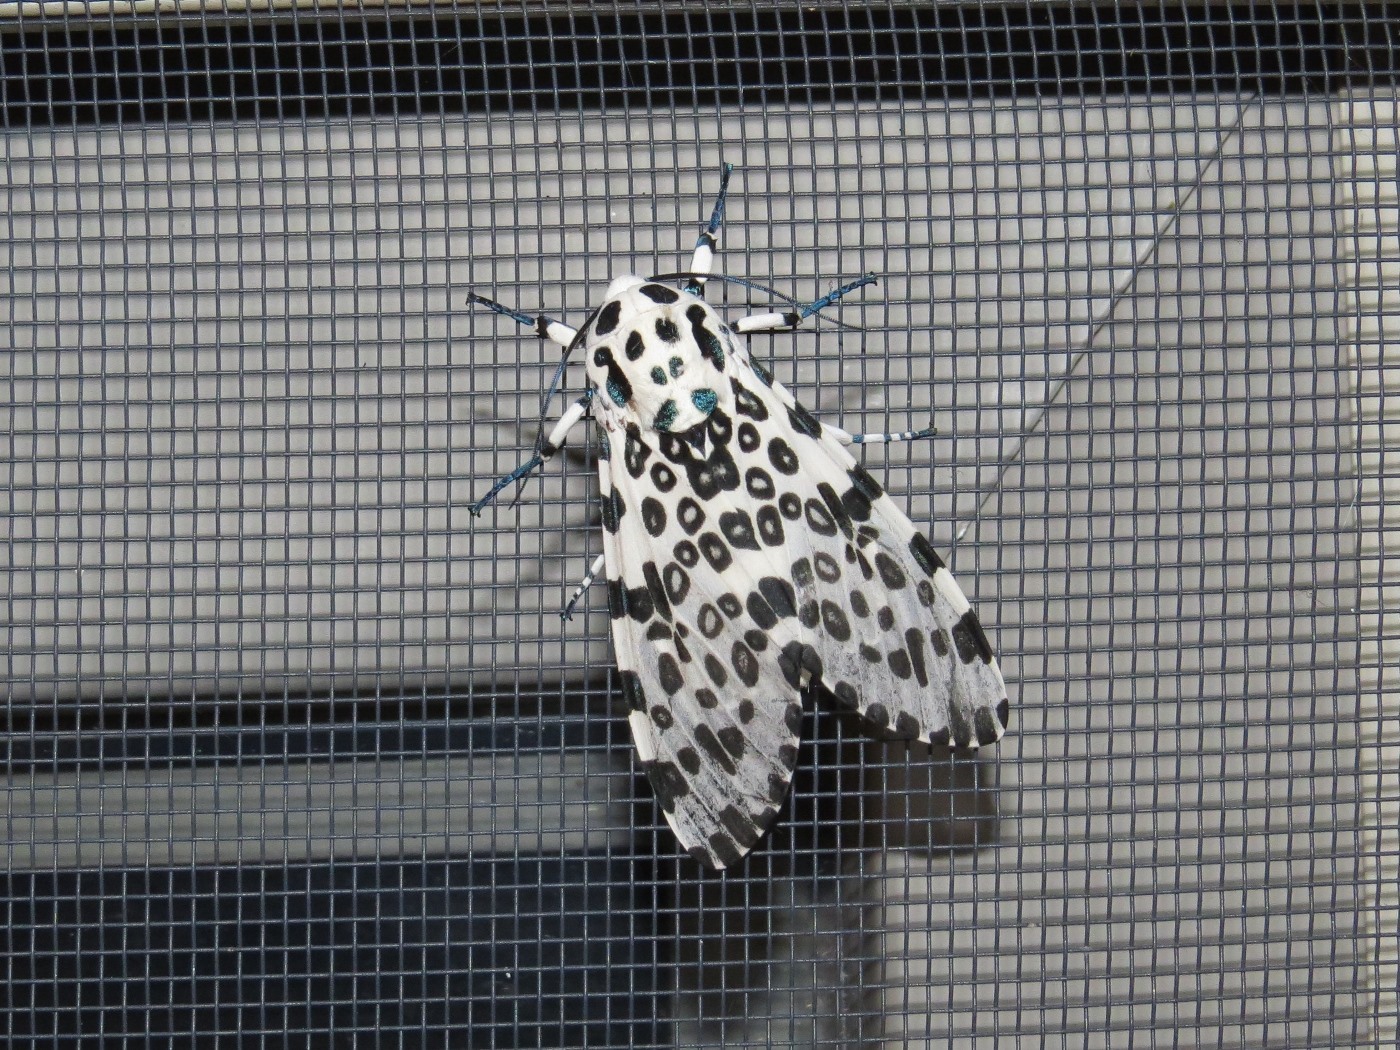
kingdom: Animalia
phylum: Arthropoda
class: Insecta
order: Lepidoptera
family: Erebidae
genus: Hypercompe
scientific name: Hypercompe scribonia
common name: Giant leopard moth
